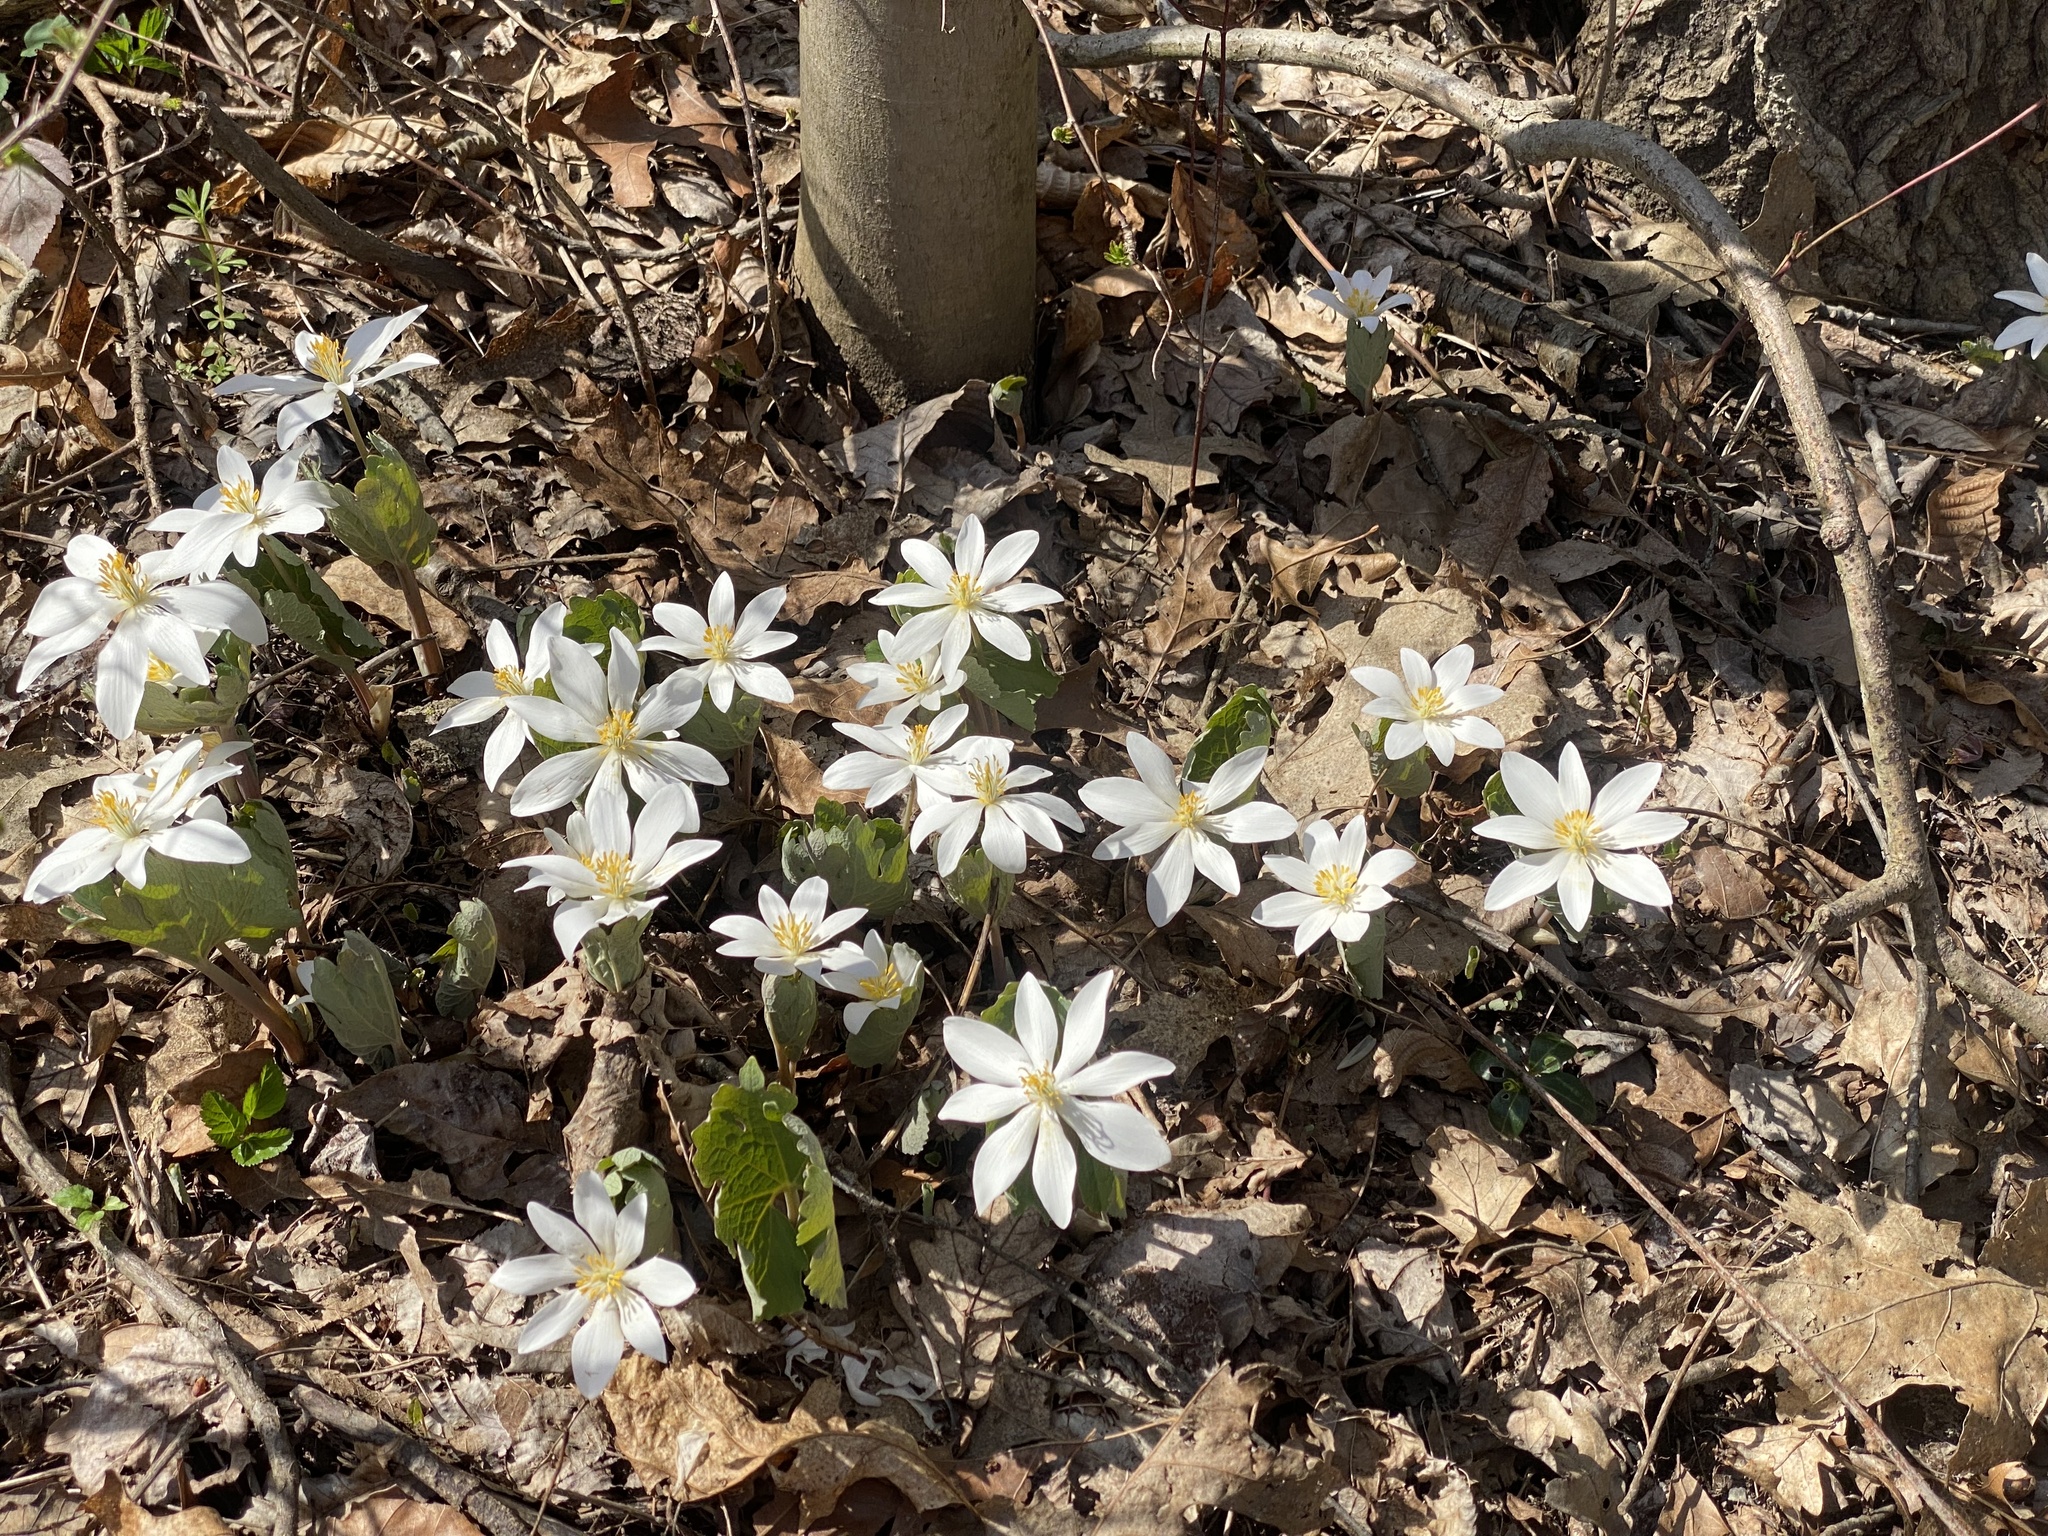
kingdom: Plantae
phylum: Tracheophyta
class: Magnoliopsida
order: Ranunculales
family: Papaveraceae
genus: Sanguinaria
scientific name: Sanguinaria canadensis
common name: Bloodroot
